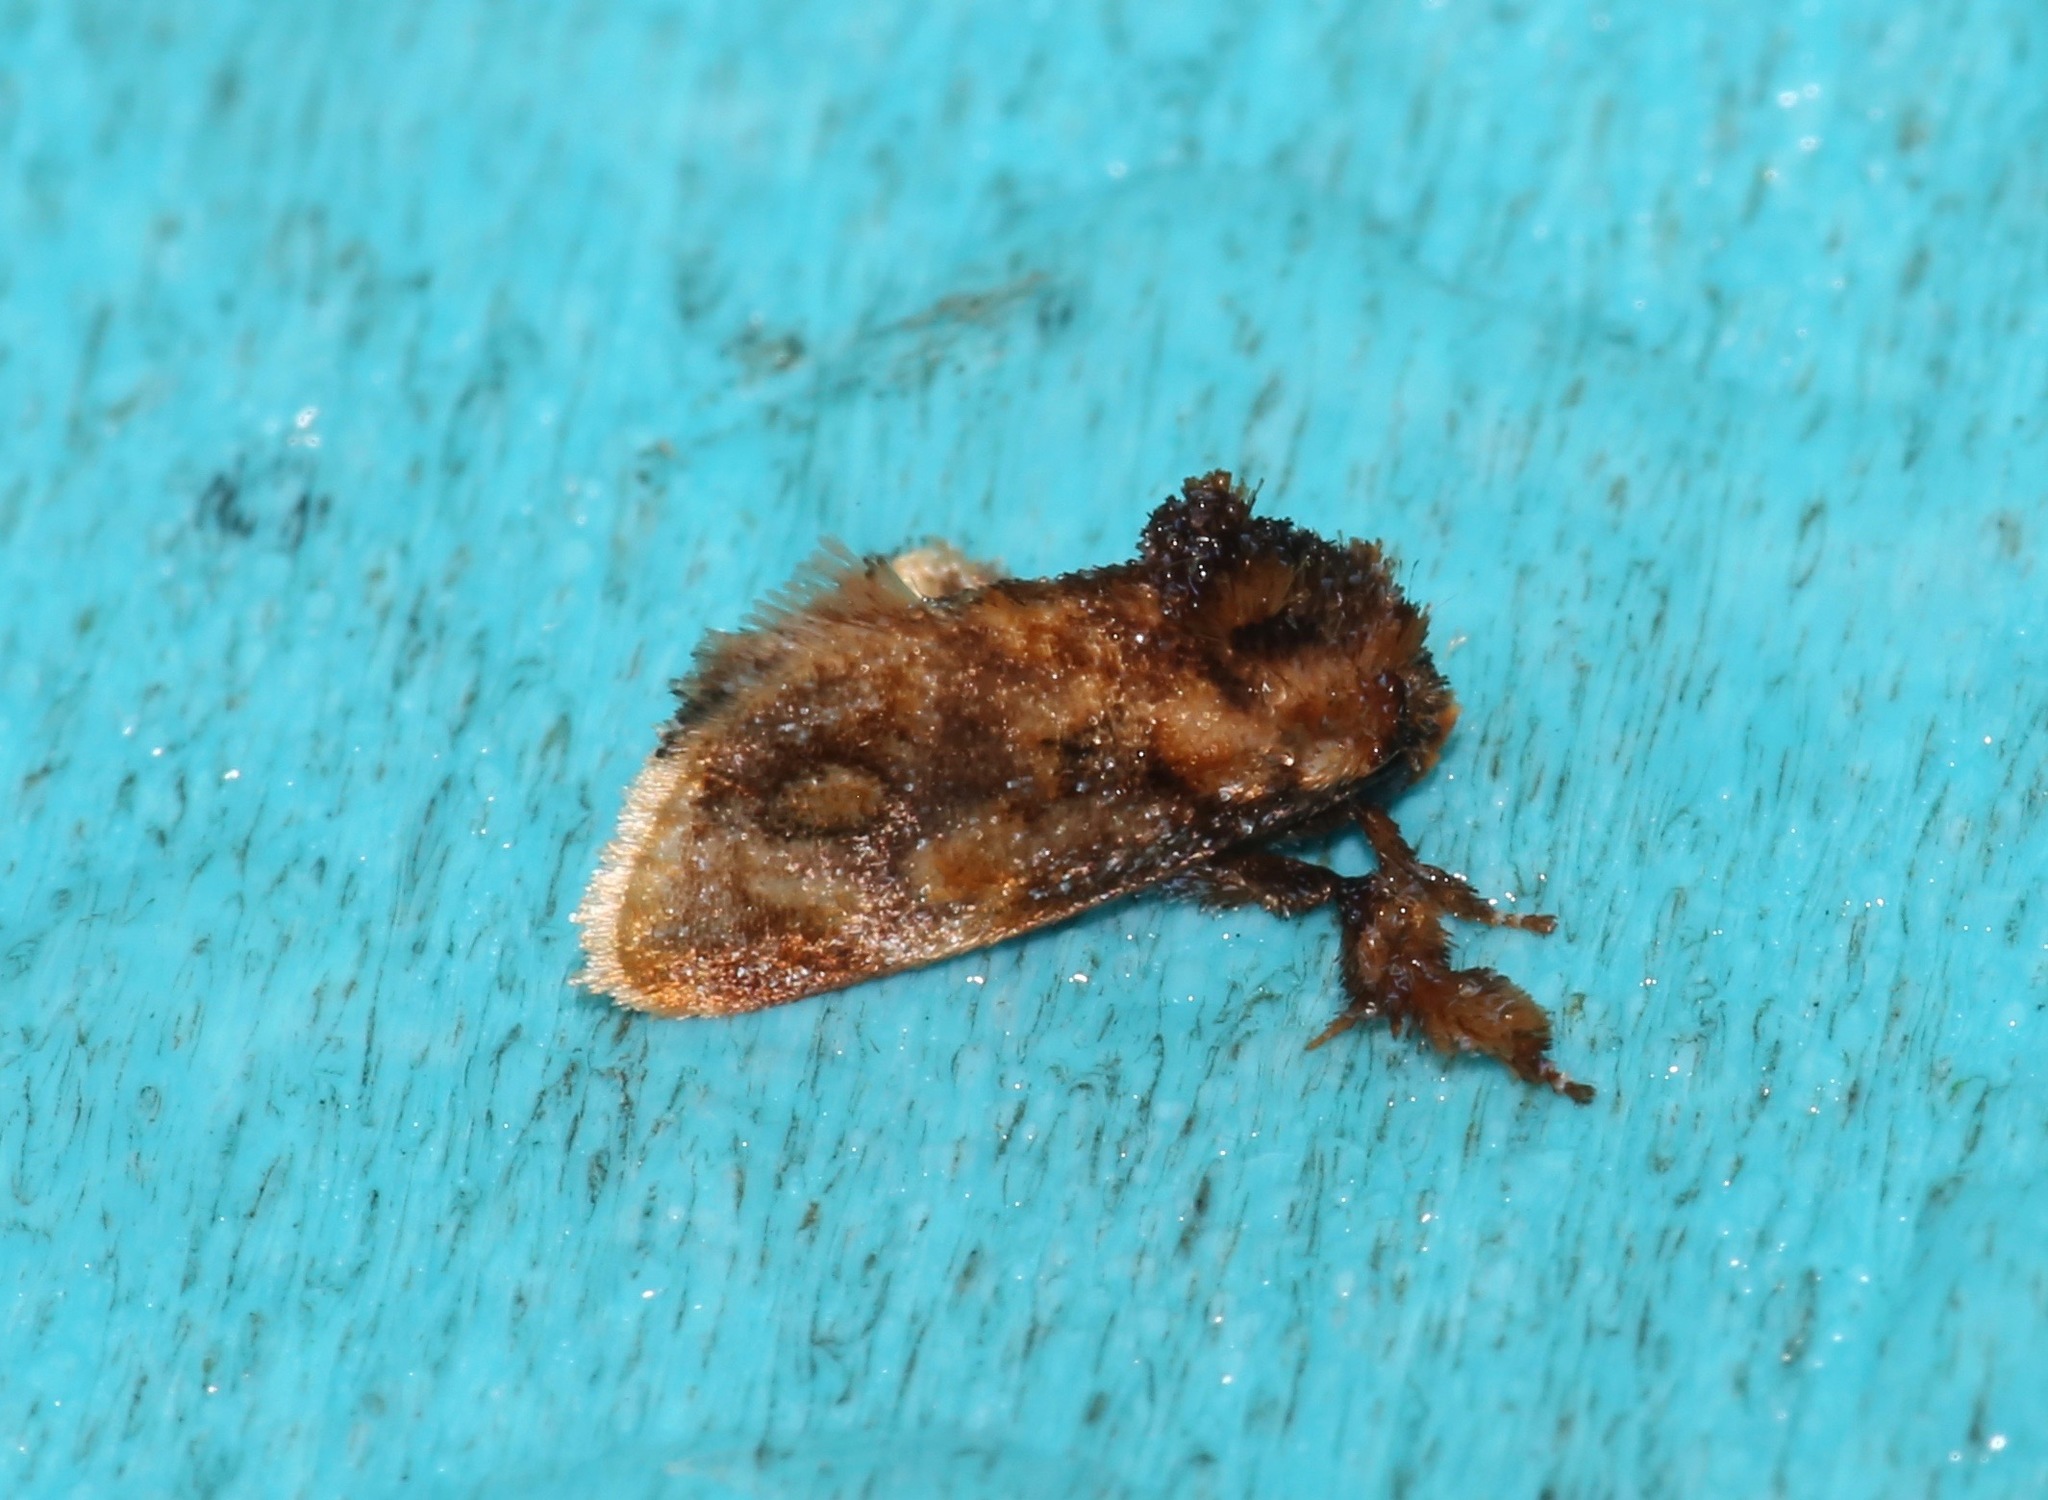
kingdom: Animalia
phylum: Arthropoda
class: Insecta
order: Lepidoptera
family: Limacodidae
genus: Isochaetes
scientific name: Isochaetes beutenmuelleri
